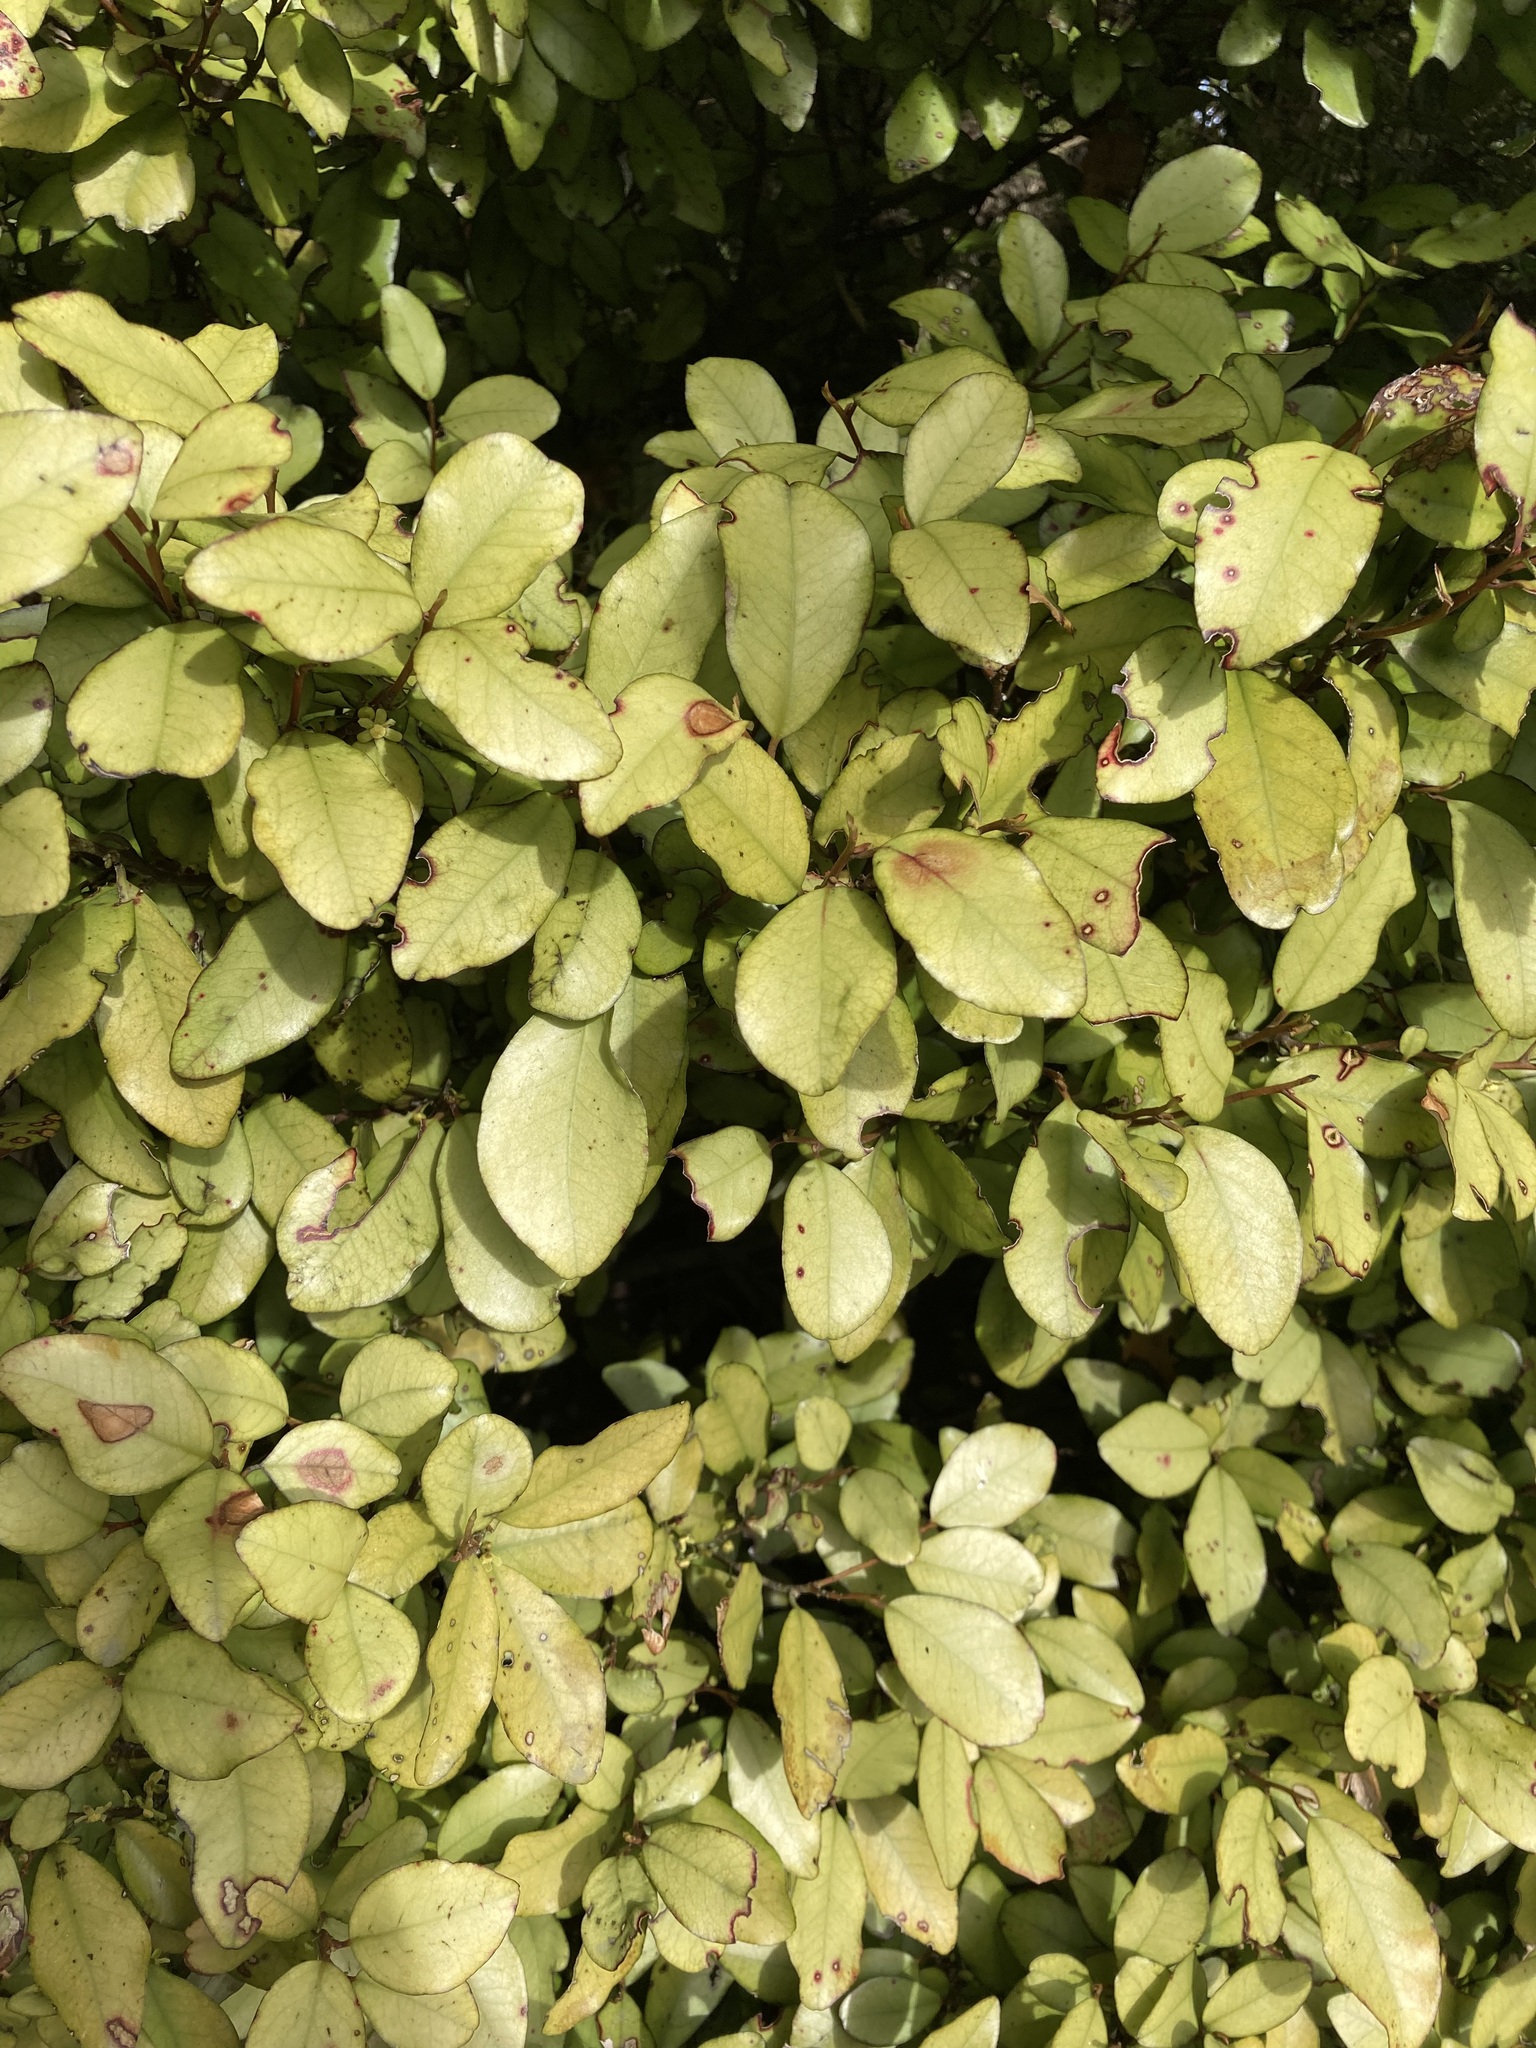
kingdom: Plantae
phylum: Tracheophyta
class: Magnoliopsida
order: Canellales
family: Winteraceae
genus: Pseudowintera
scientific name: Pseudowintera colorata
